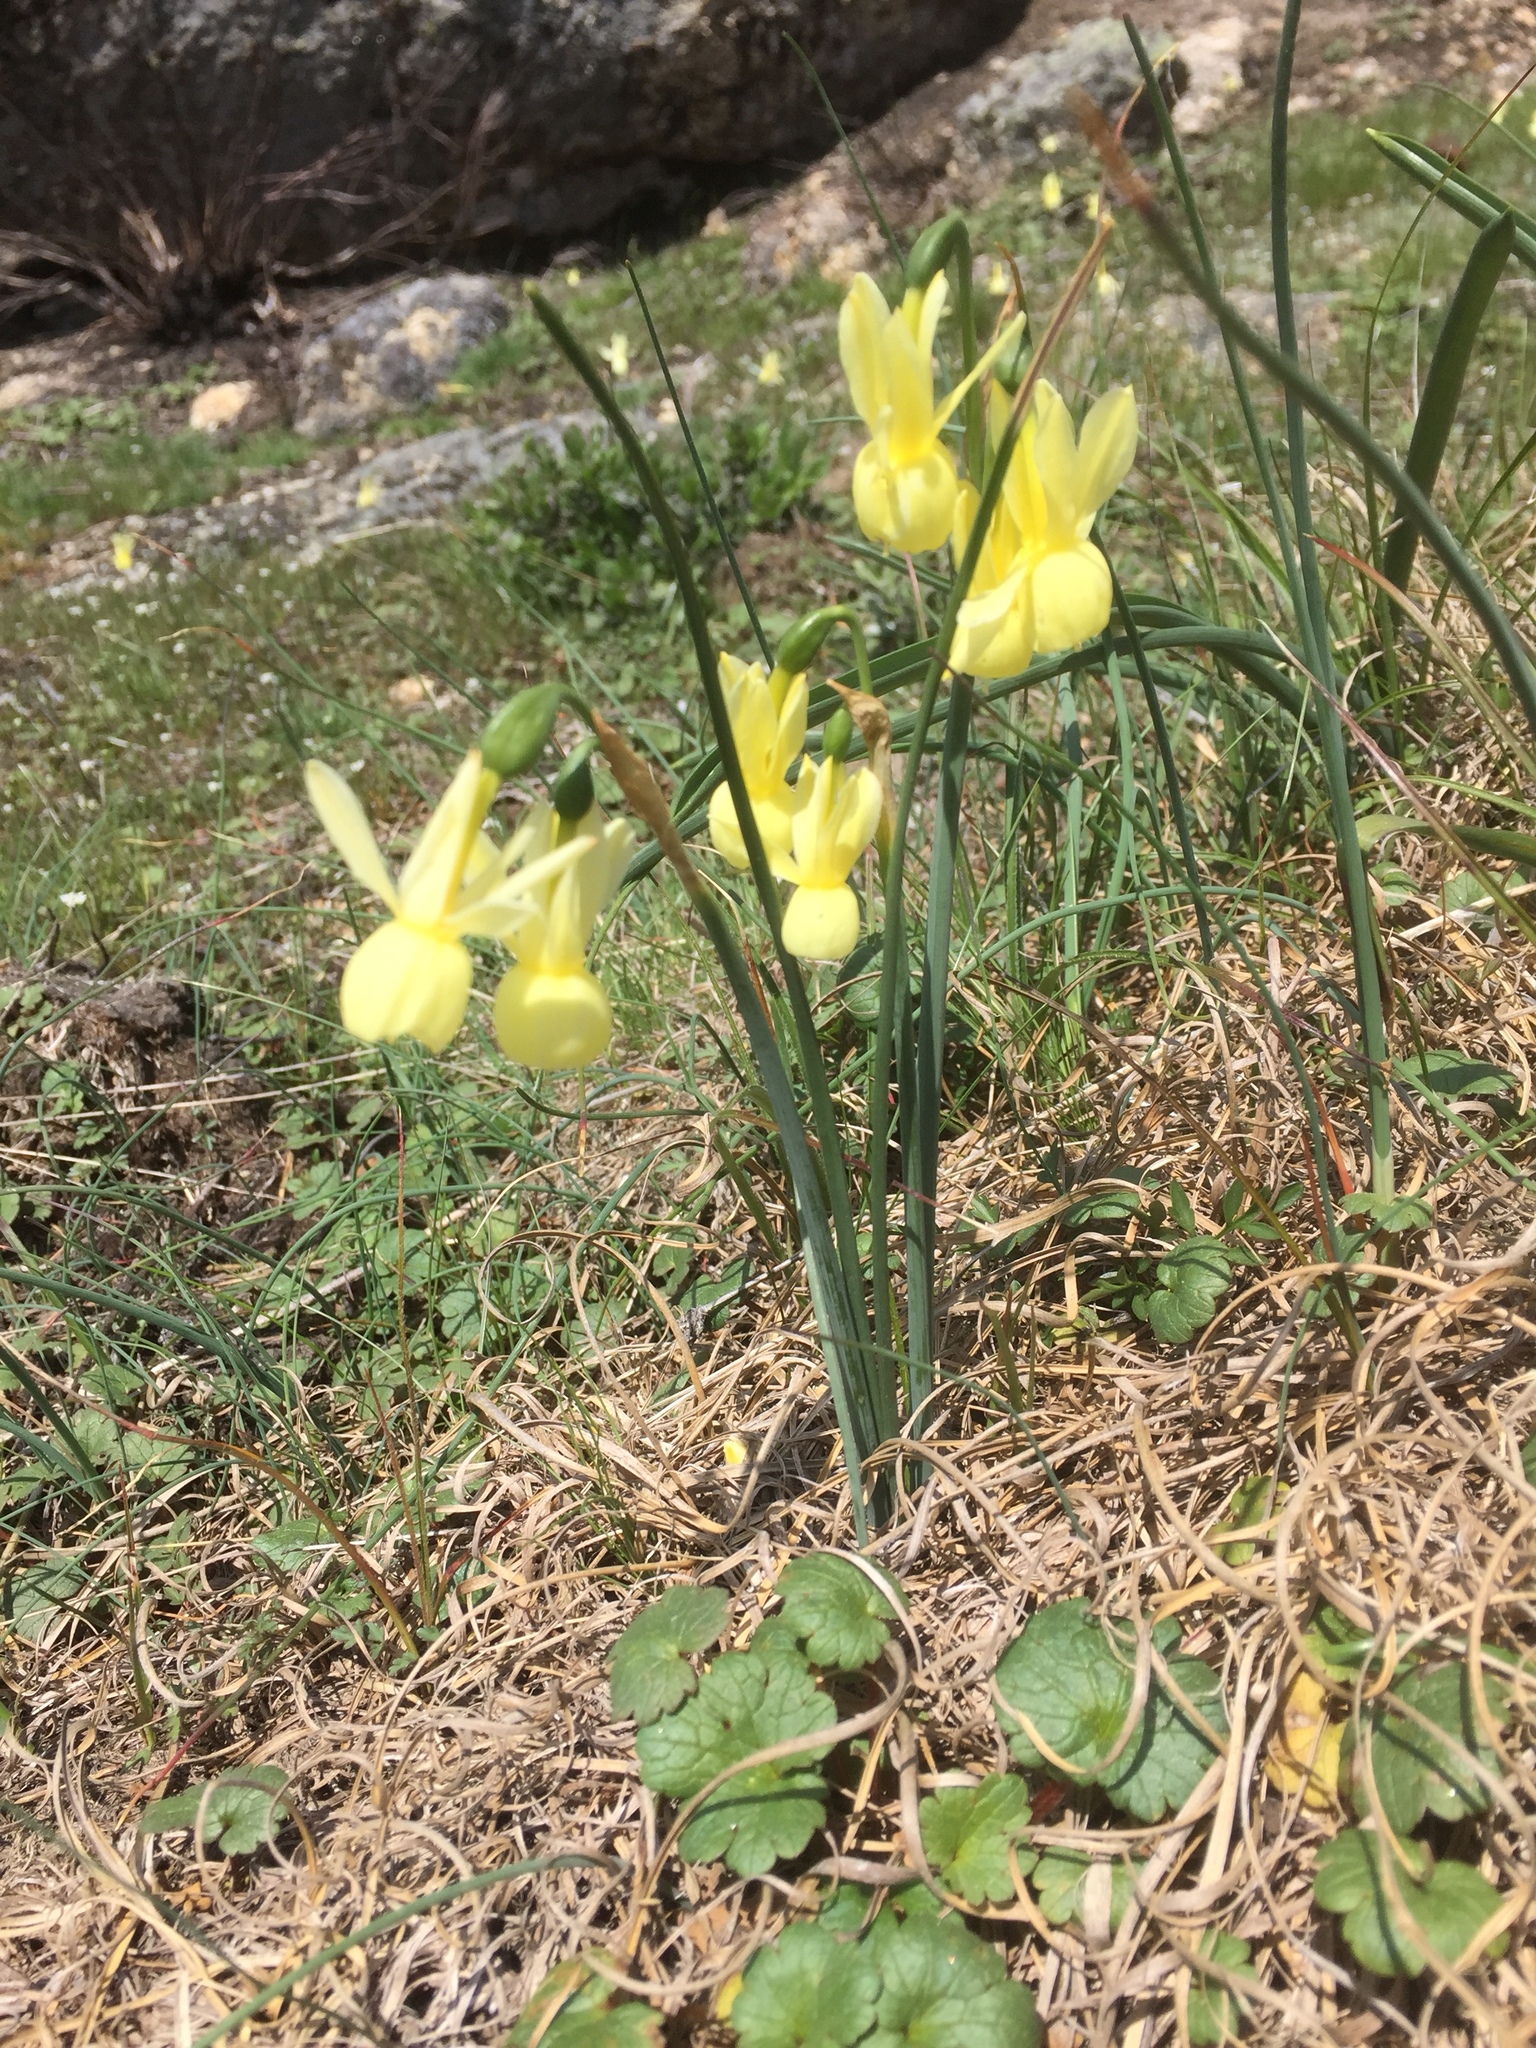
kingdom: Plantae
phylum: Tracheophyta
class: Liliopsida
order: Asparagales
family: Amaryllidaceae
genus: Narcissus
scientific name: Narcissus triandrus
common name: Angel's-tears
